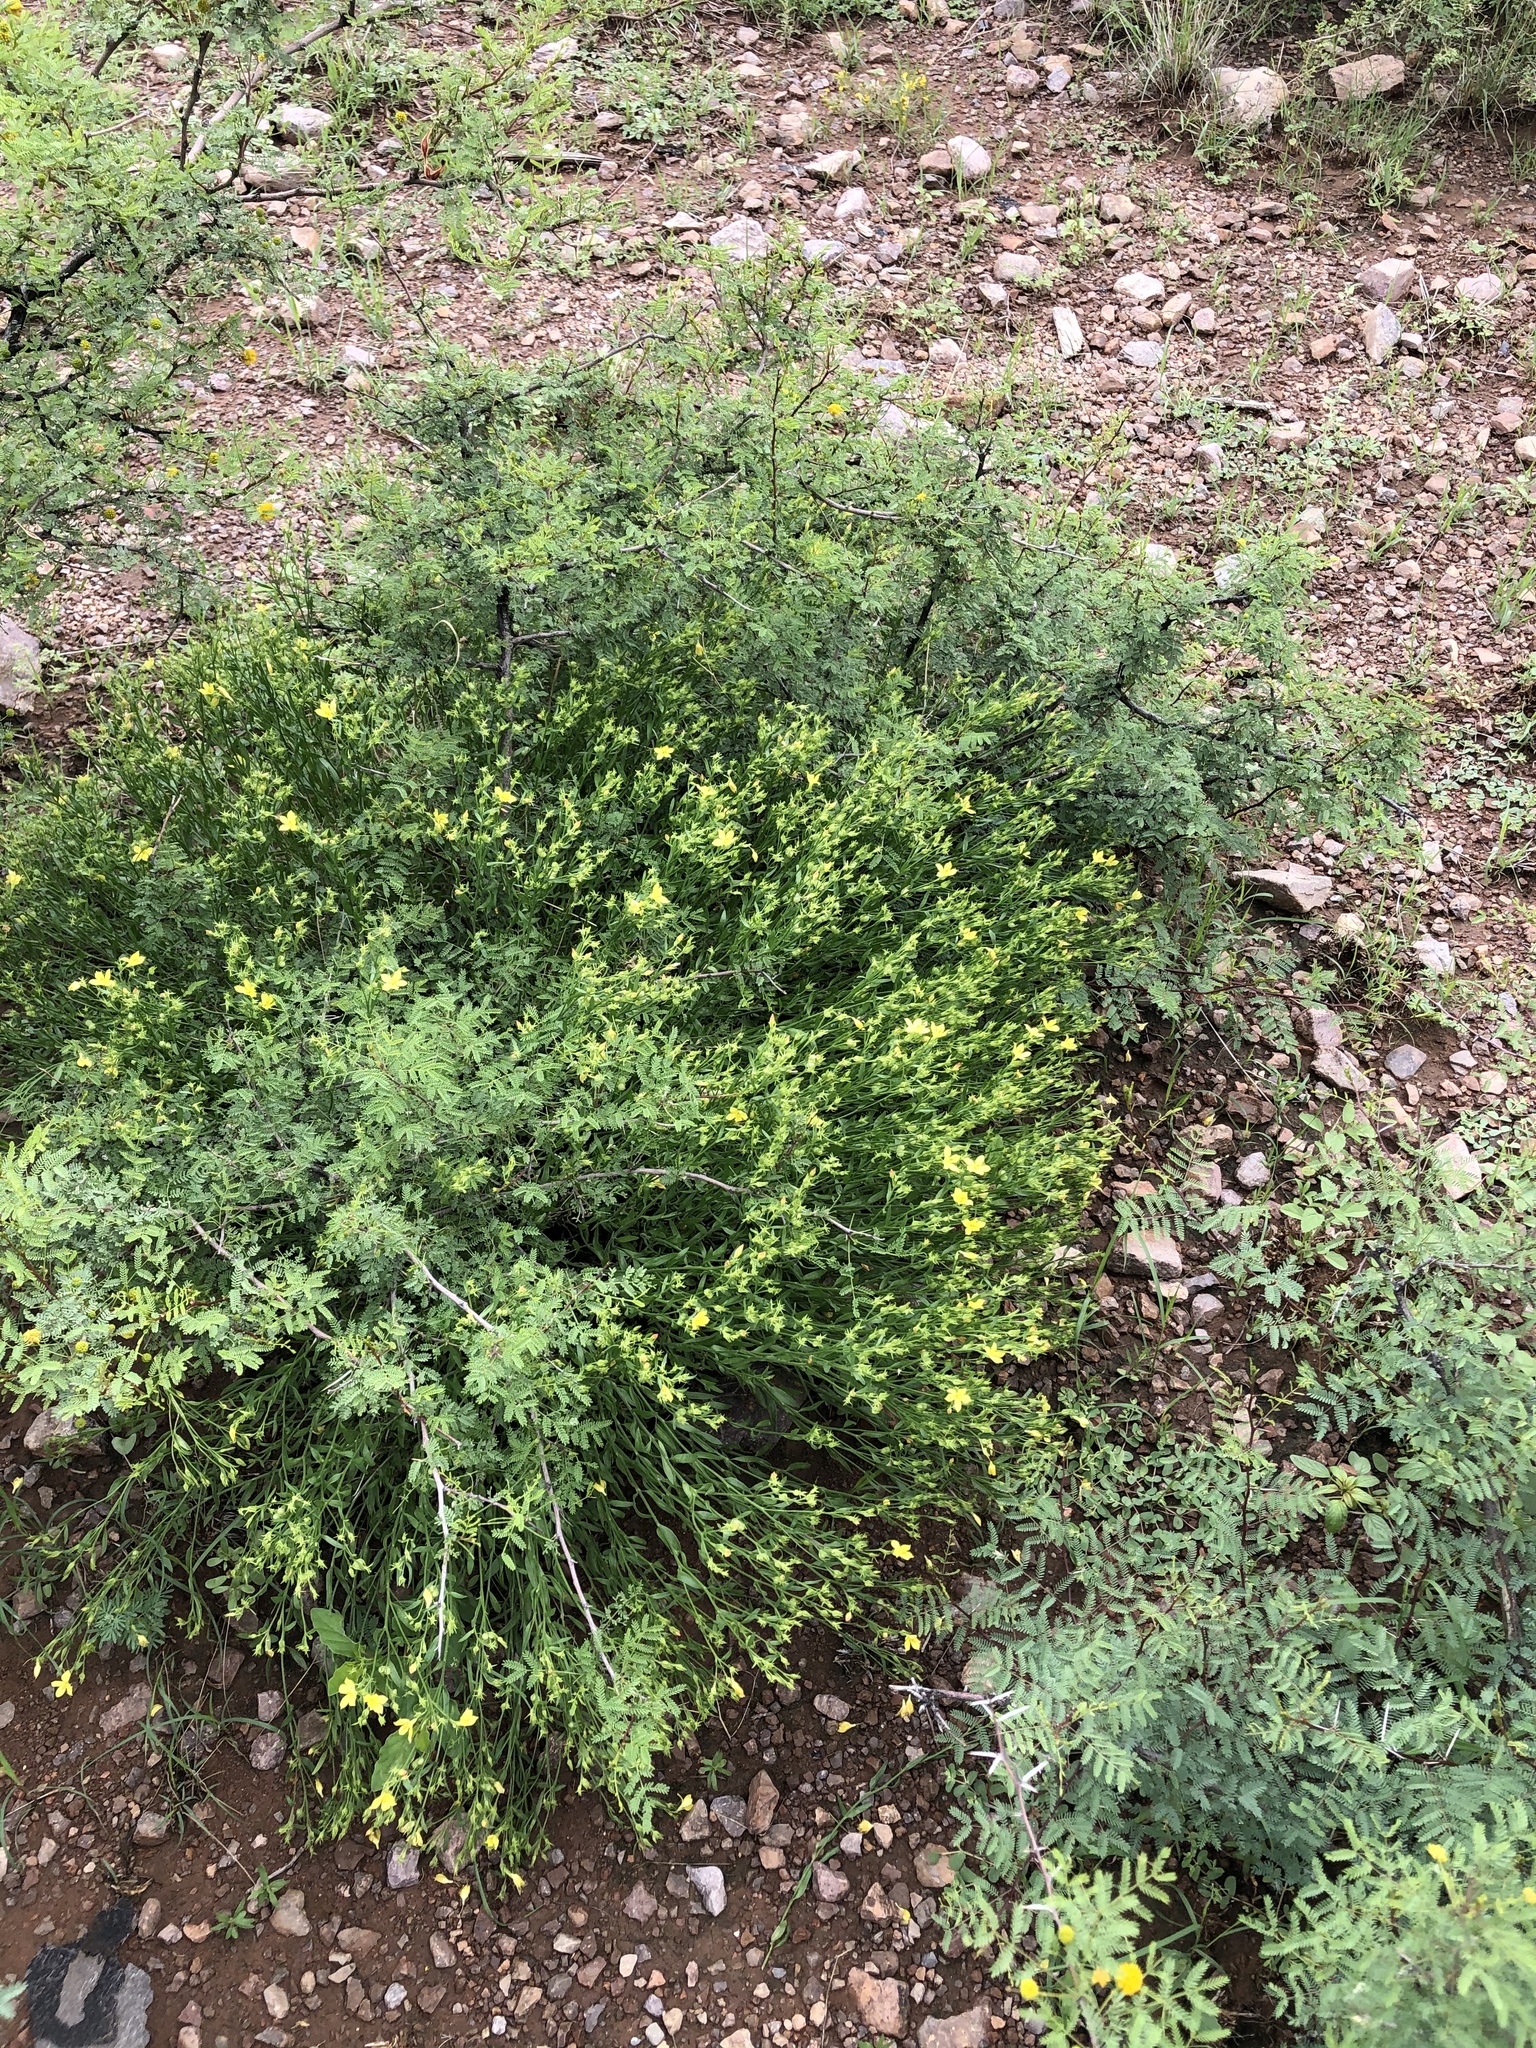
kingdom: Plantae
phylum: Tracheophyta
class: Magnoliopsida
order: Lamiales
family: Oleaceae
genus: Menodora
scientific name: Menodora scabra
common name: Rough menodora
